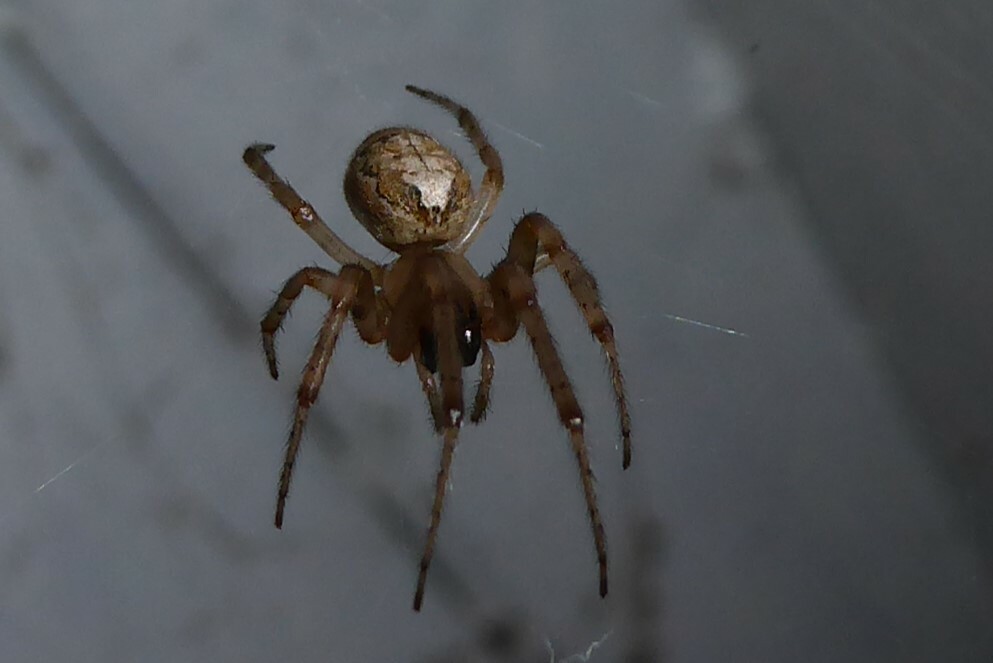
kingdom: Animalia
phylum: Arthropoda
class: Arachnida
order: Araneae
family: Araneidae
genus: Zygiella
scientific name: Zygiella x-notata
